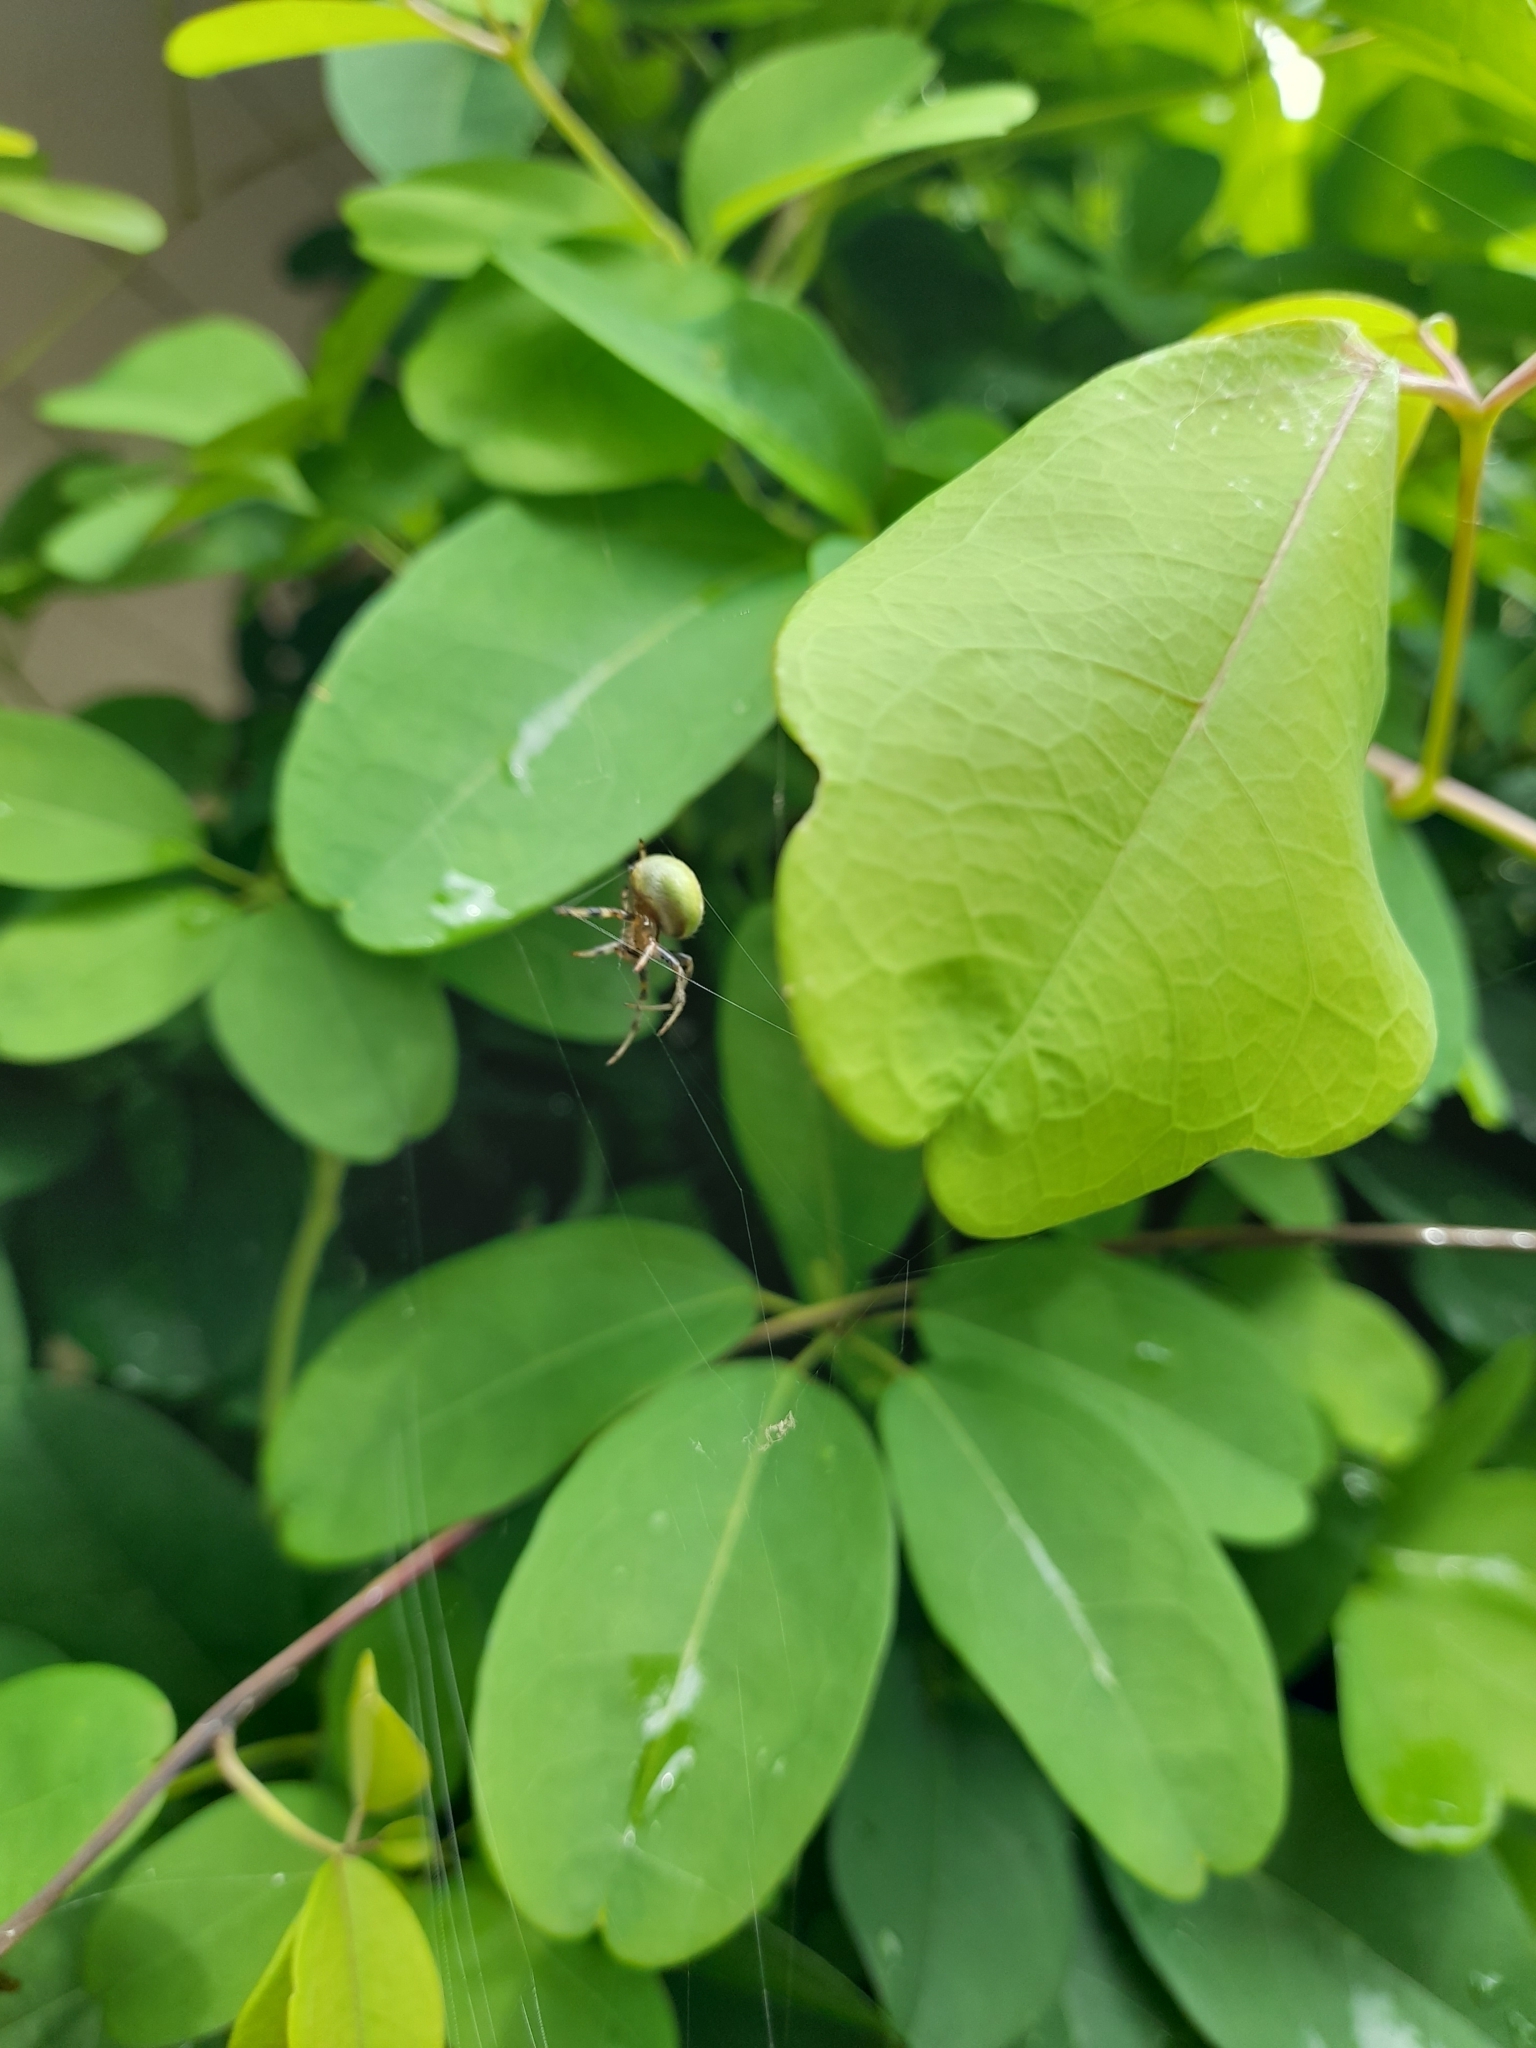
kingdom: Animalia
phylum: Arthropoda
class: Arachnida
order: Araneae
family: Araneidae
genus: Araneus
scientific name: Araneus lathyrinus
